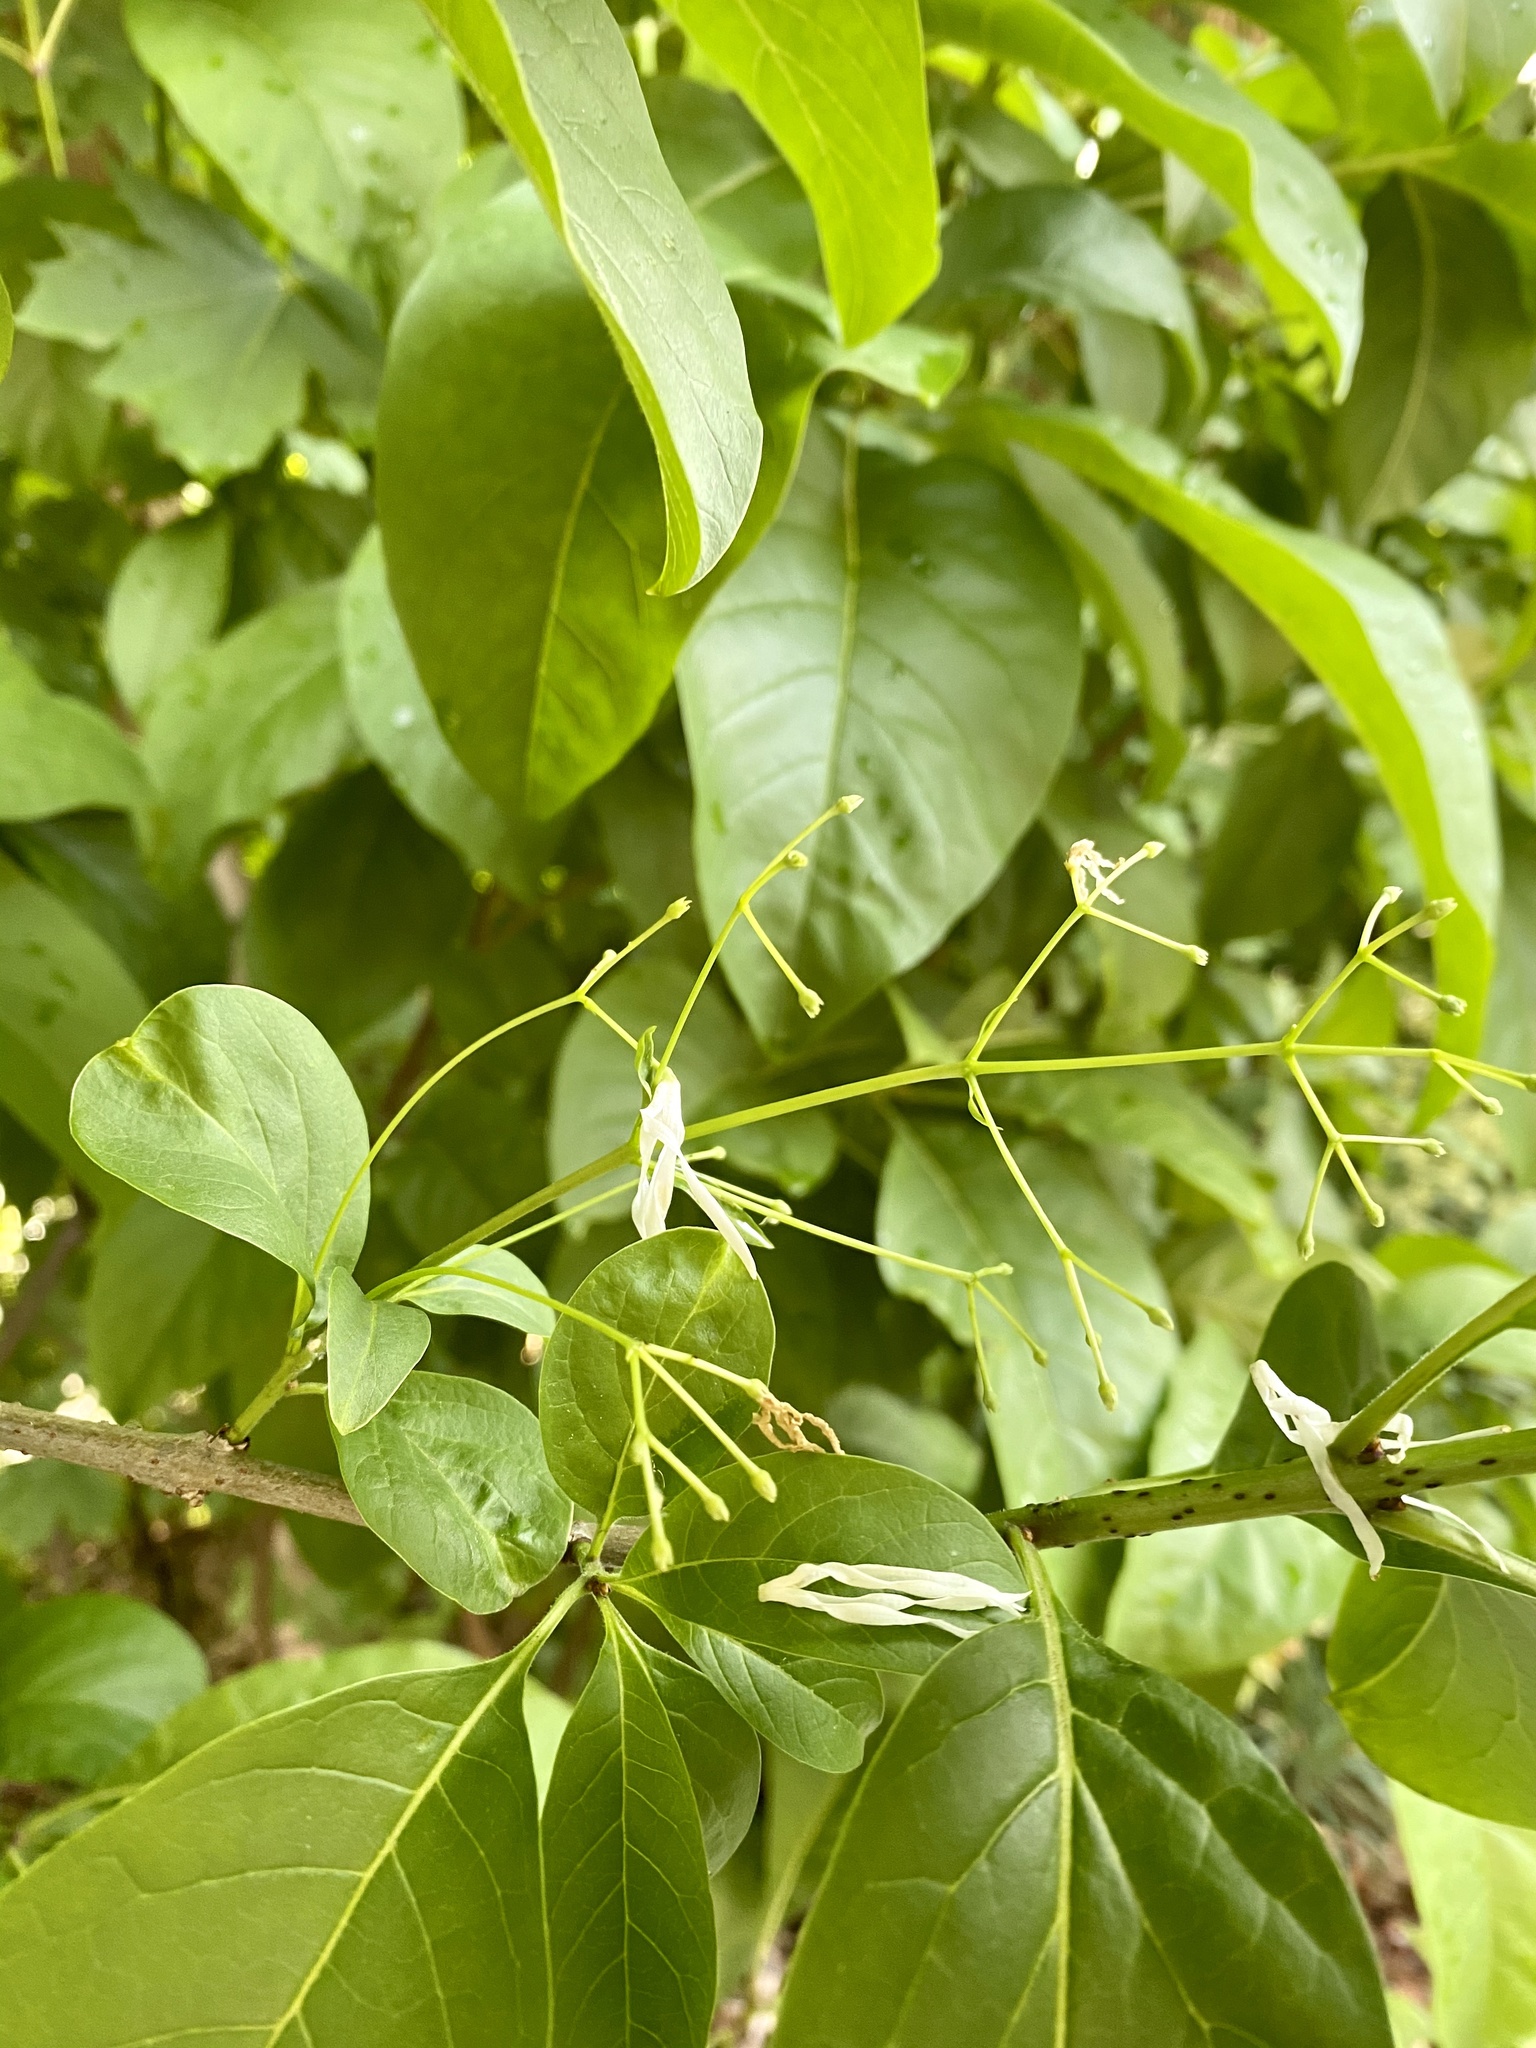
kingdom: Plantae
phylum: Tracheophyta
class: Magnoliopsida
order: Lamiales
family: Oleaceae
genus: Chionanthus
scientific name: Chionanthus virginicus
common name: American fringetree
